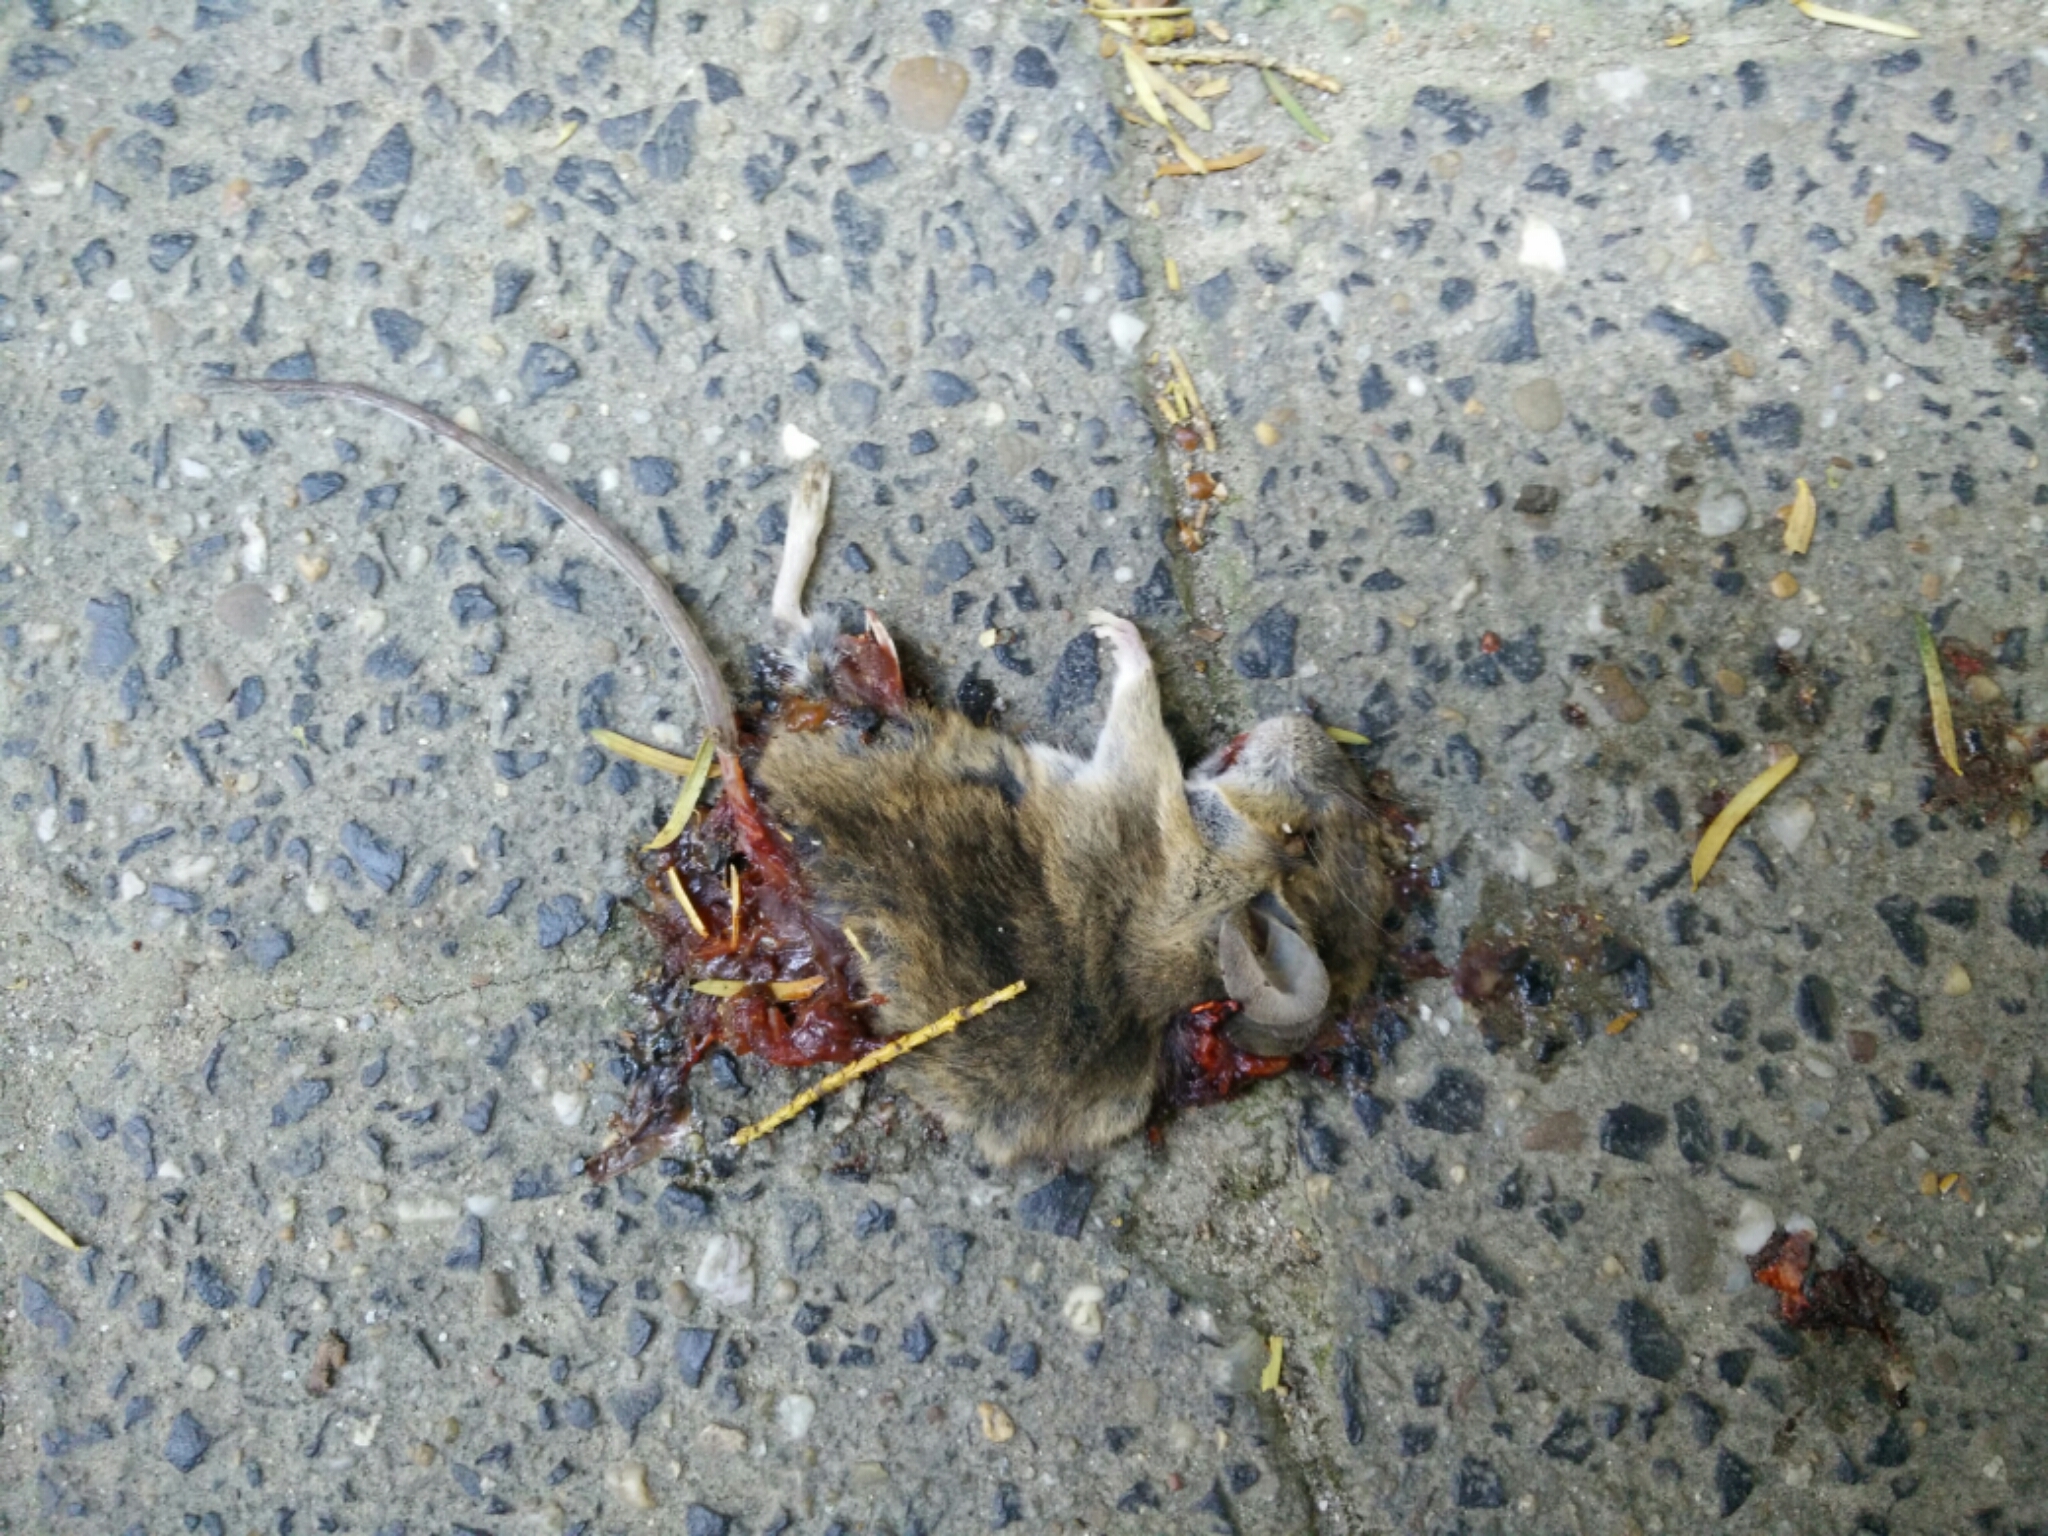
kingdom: Animalia
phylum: Chordata
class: Mammalia
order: Rodentia
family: Muridae
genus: Apodemus
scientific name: Apodemus sylvaticus
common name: Wood mouse
